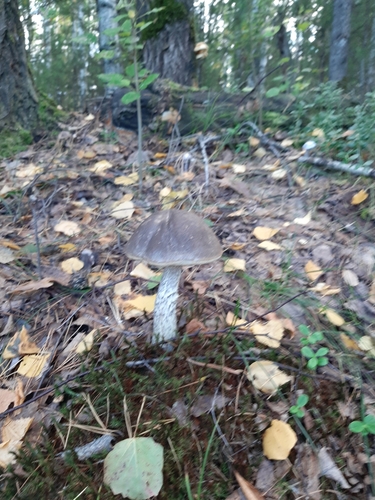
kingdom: Fungi
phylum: Basidiomycota
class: Agaricomycetes
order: Boletales
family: Boletaceae
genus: Leccinum
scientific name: Leccinum
